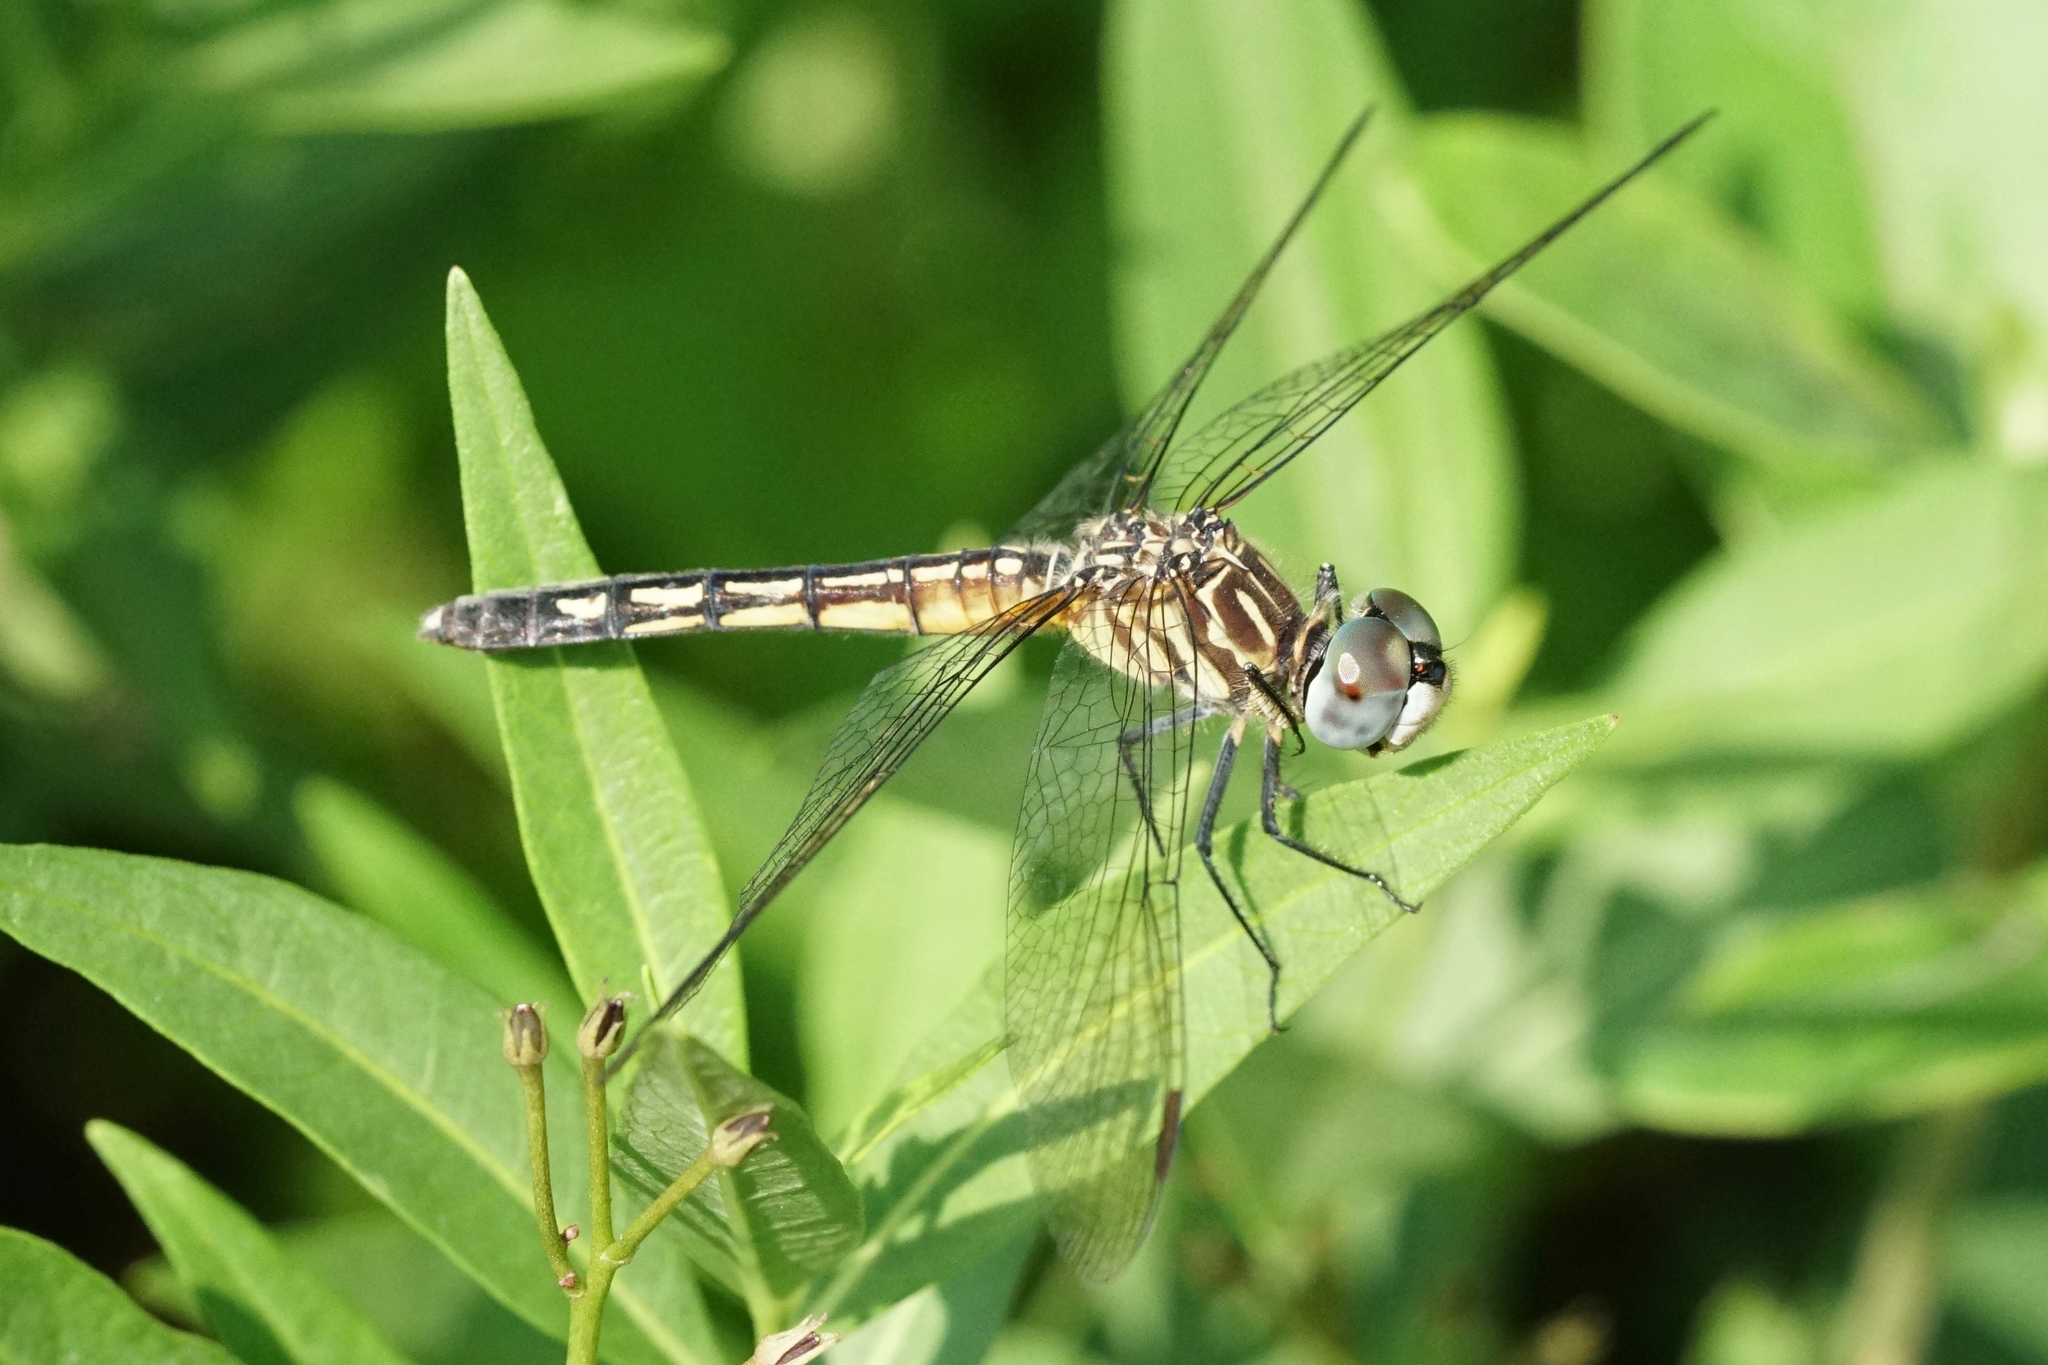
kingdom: Animalia
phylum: Arthropoda
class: Insecta
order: Odonata
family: Libellulidae
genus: Pachydiplax
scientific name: Pachydiplax longipennis
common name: Blue dasher
